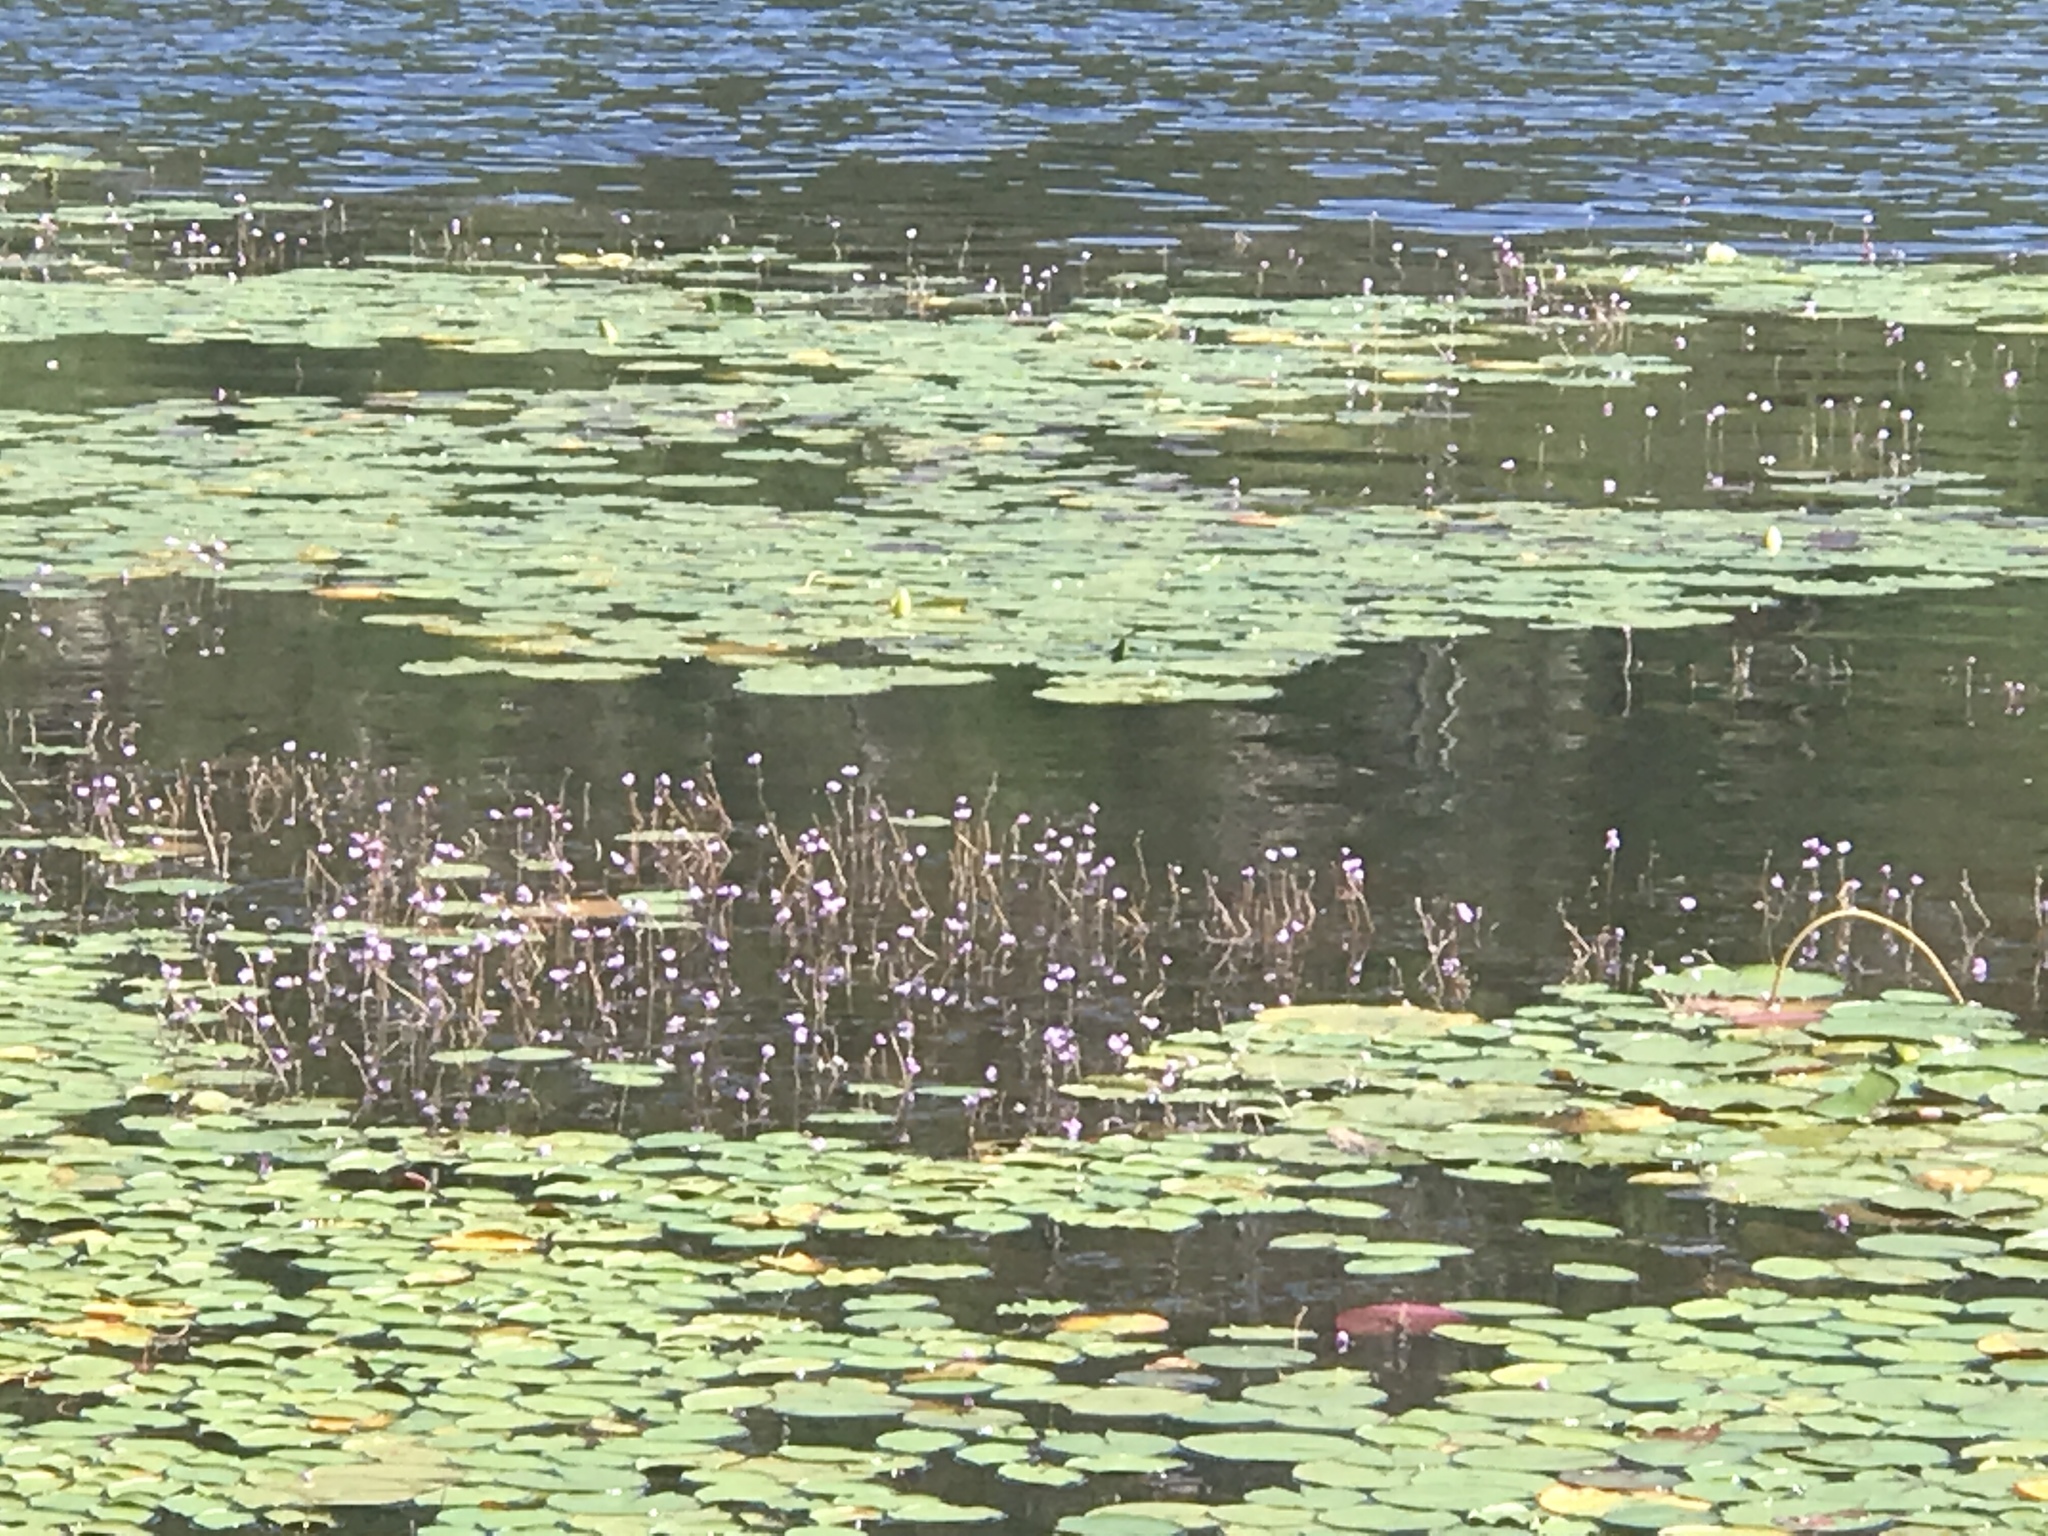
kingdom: Plantae
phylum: Tracheophyta
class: Magnoliopsida
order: Lamiales
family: Lentibulariaceae
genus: Utricularia
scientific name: Utricularia purpurea
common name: Eastern purple bladderwort
